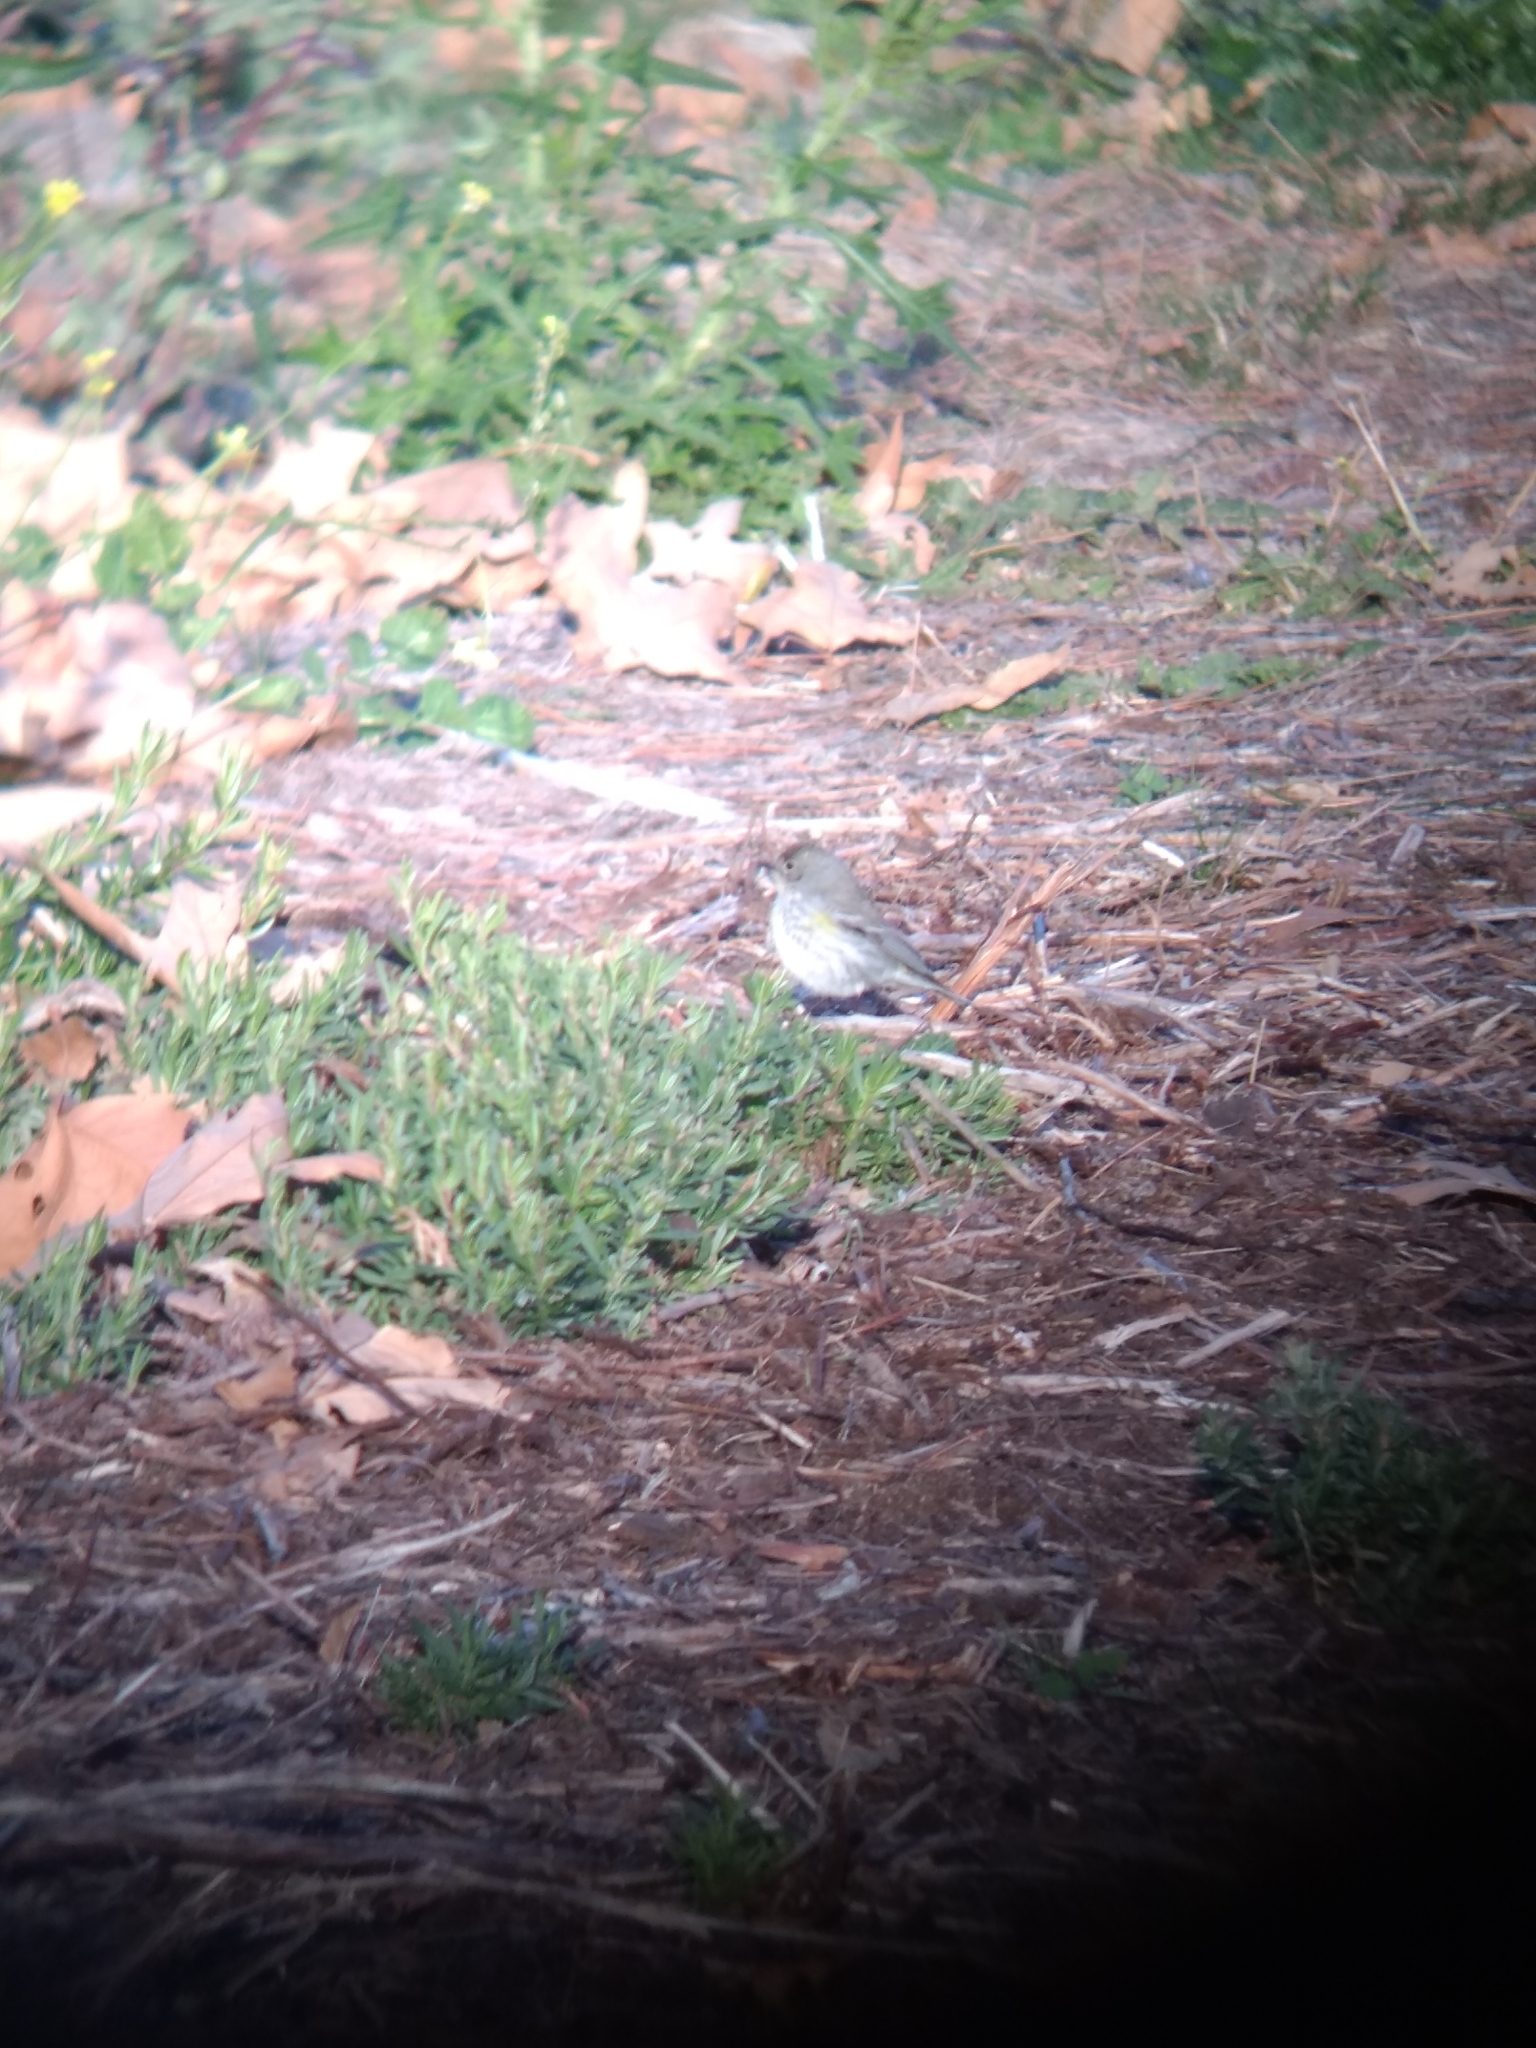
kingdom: Animalia
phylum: Chordata
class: Aves
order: Passeriformes
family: Parulidae
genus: Setophaga
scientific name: Setophaga coronata
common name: Myrtle warbler
